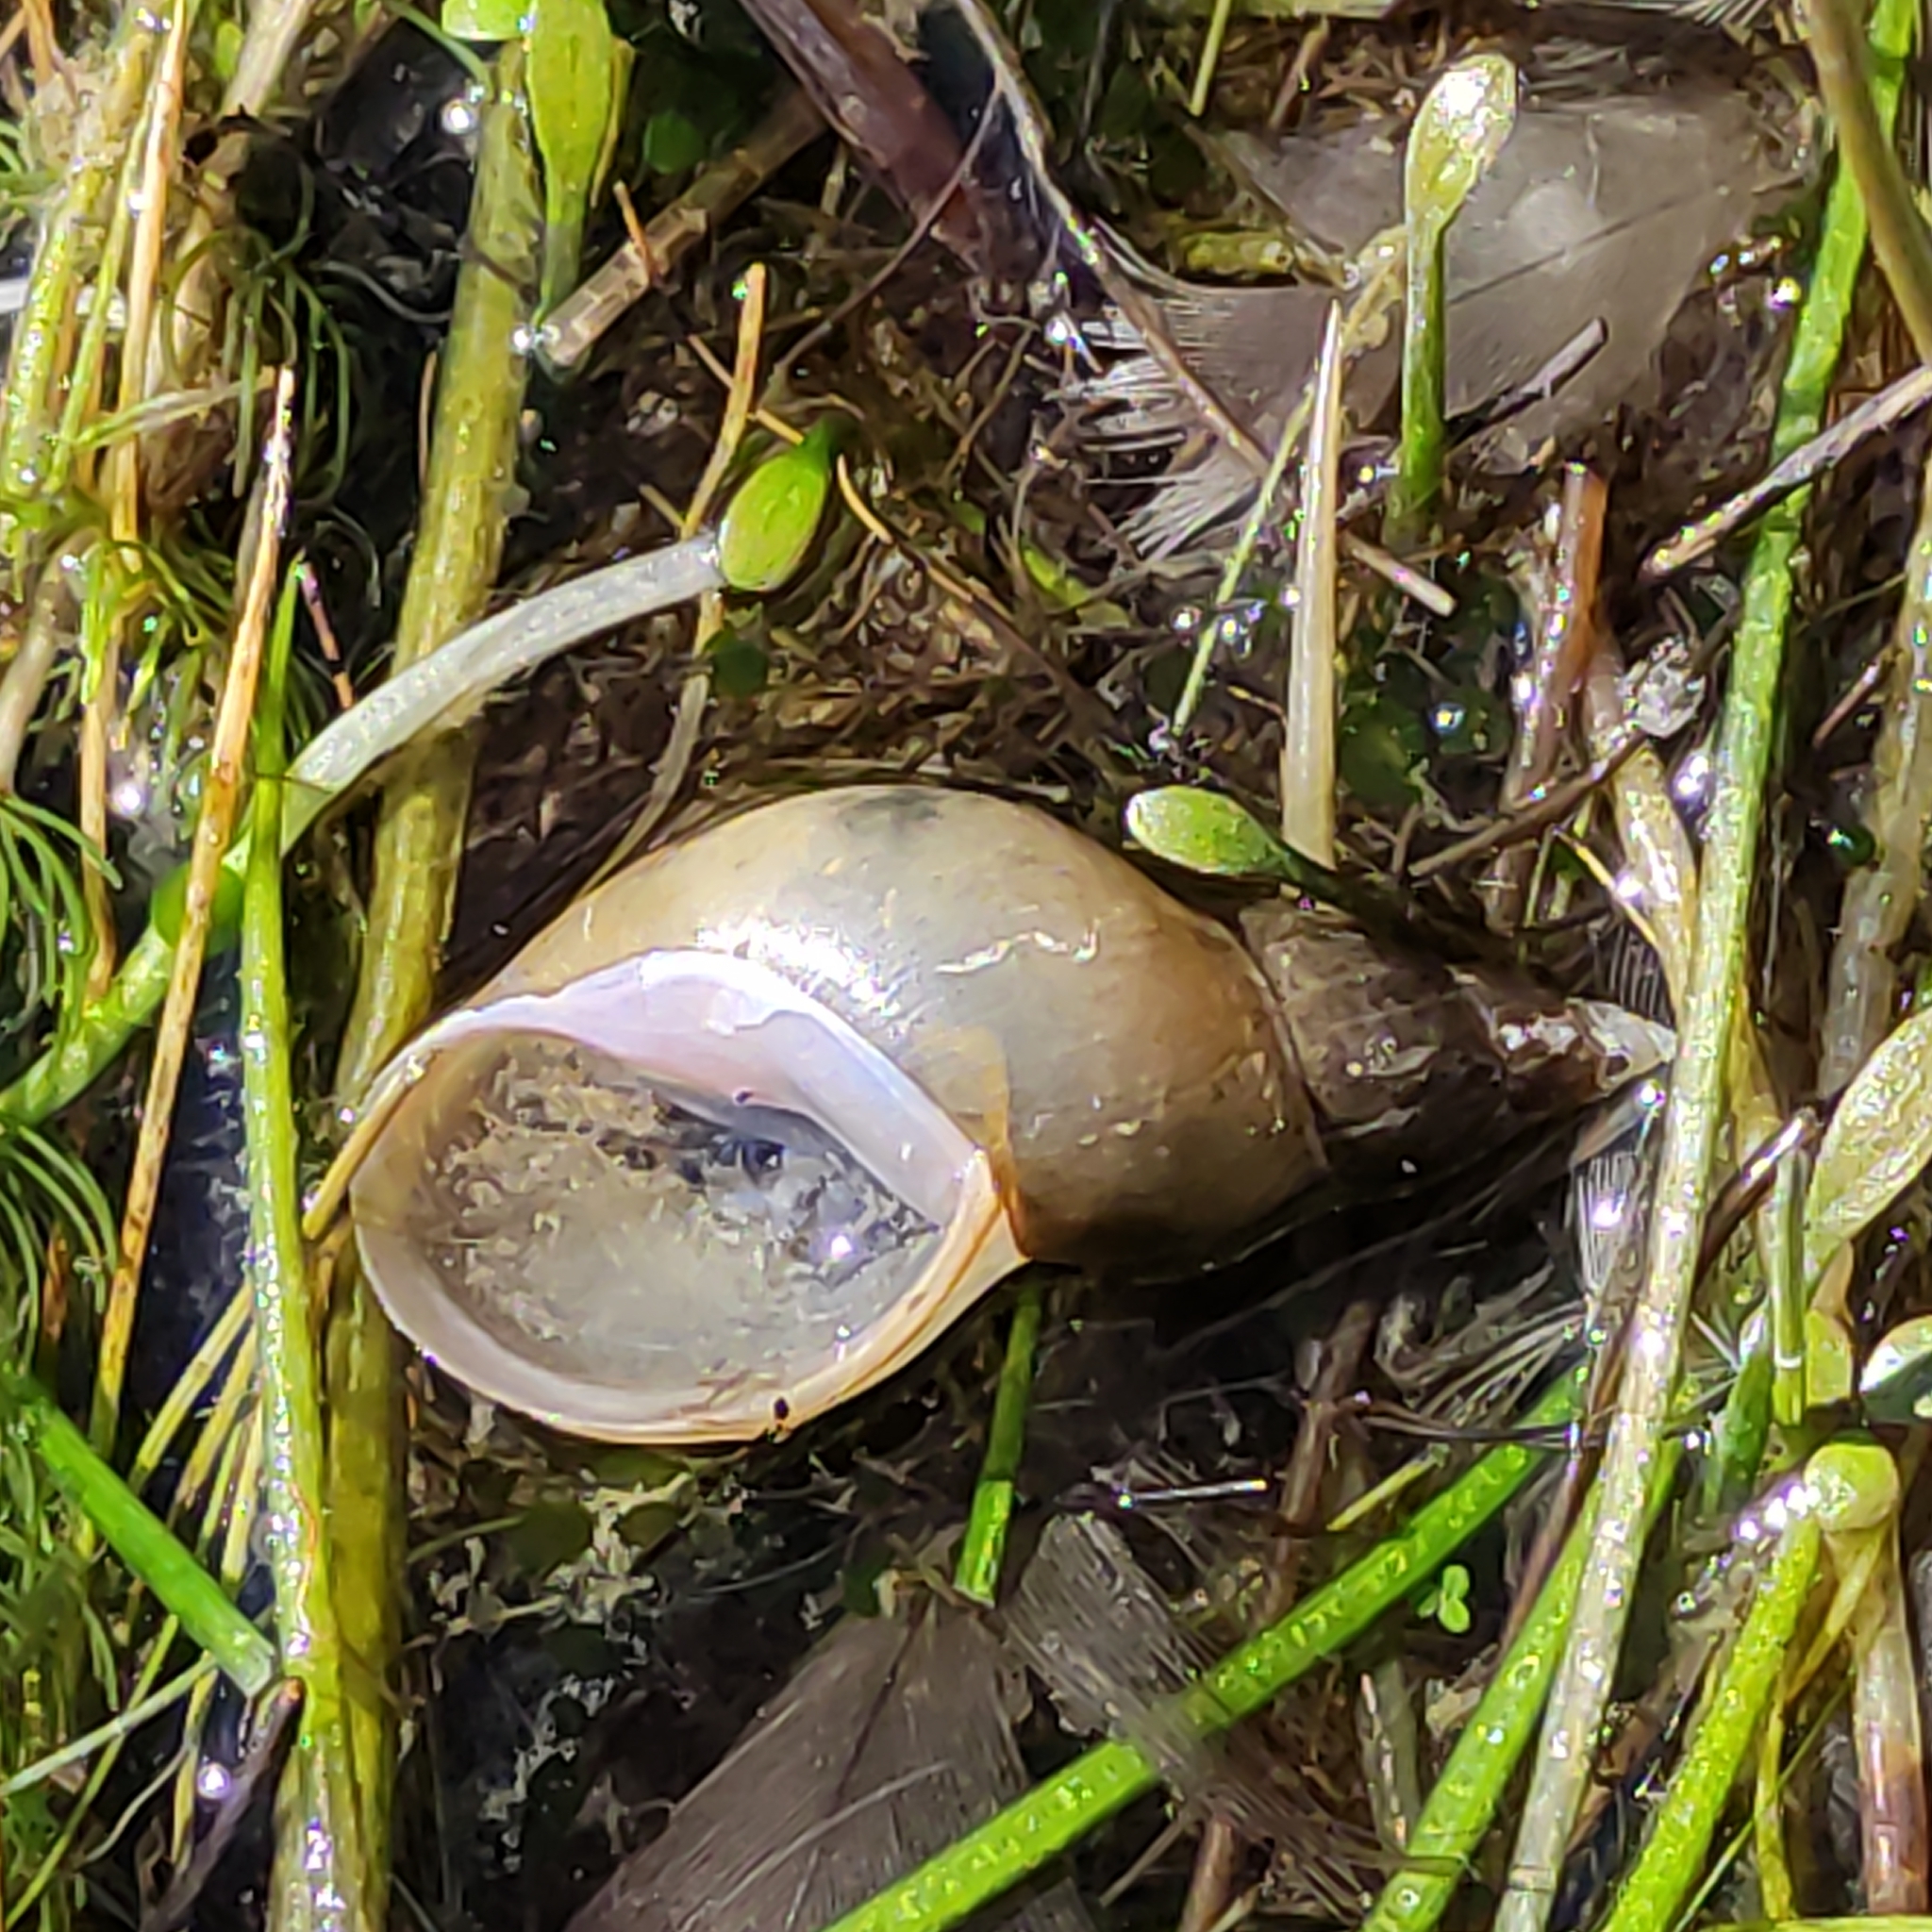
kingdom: Animalia
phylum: Mollusca
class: Gastropoda
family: Lymnaeidae
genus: Lymnaea
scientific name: Lymnaea stagnalis
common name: Great pond snail
